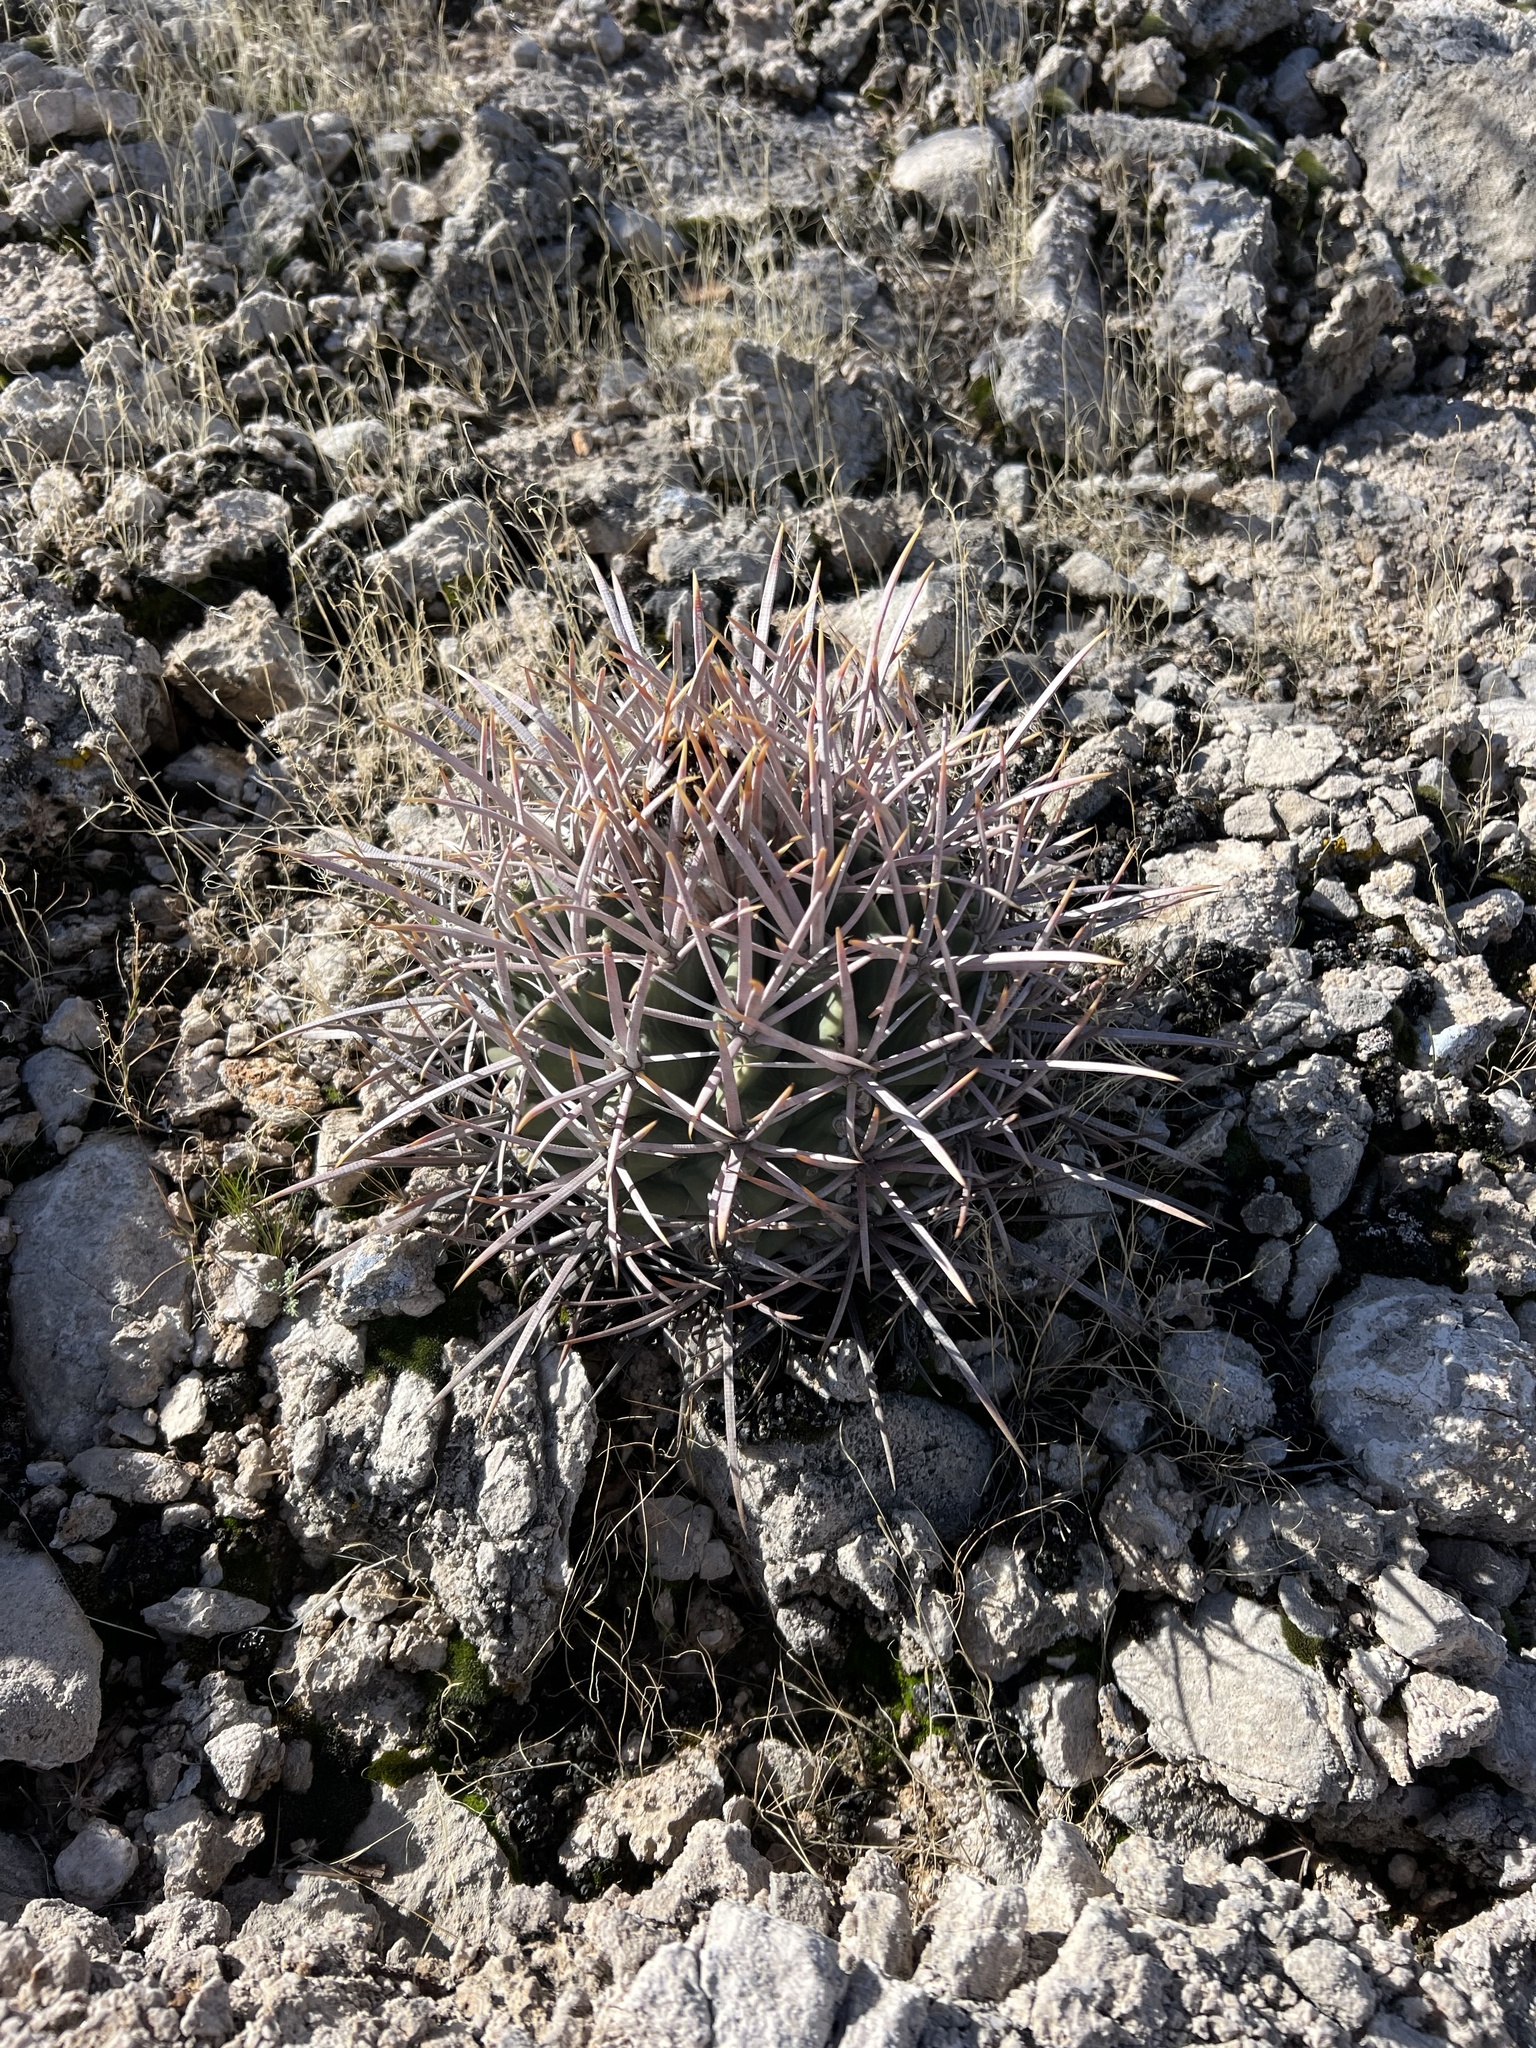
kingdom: Plantae
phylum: Tracheophyta
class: Magnoliopsida
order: Caryophyllales
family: Cactaceae
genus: Echinocactus
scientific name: Echinocactus polycephalus
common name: Cottontop cactus
